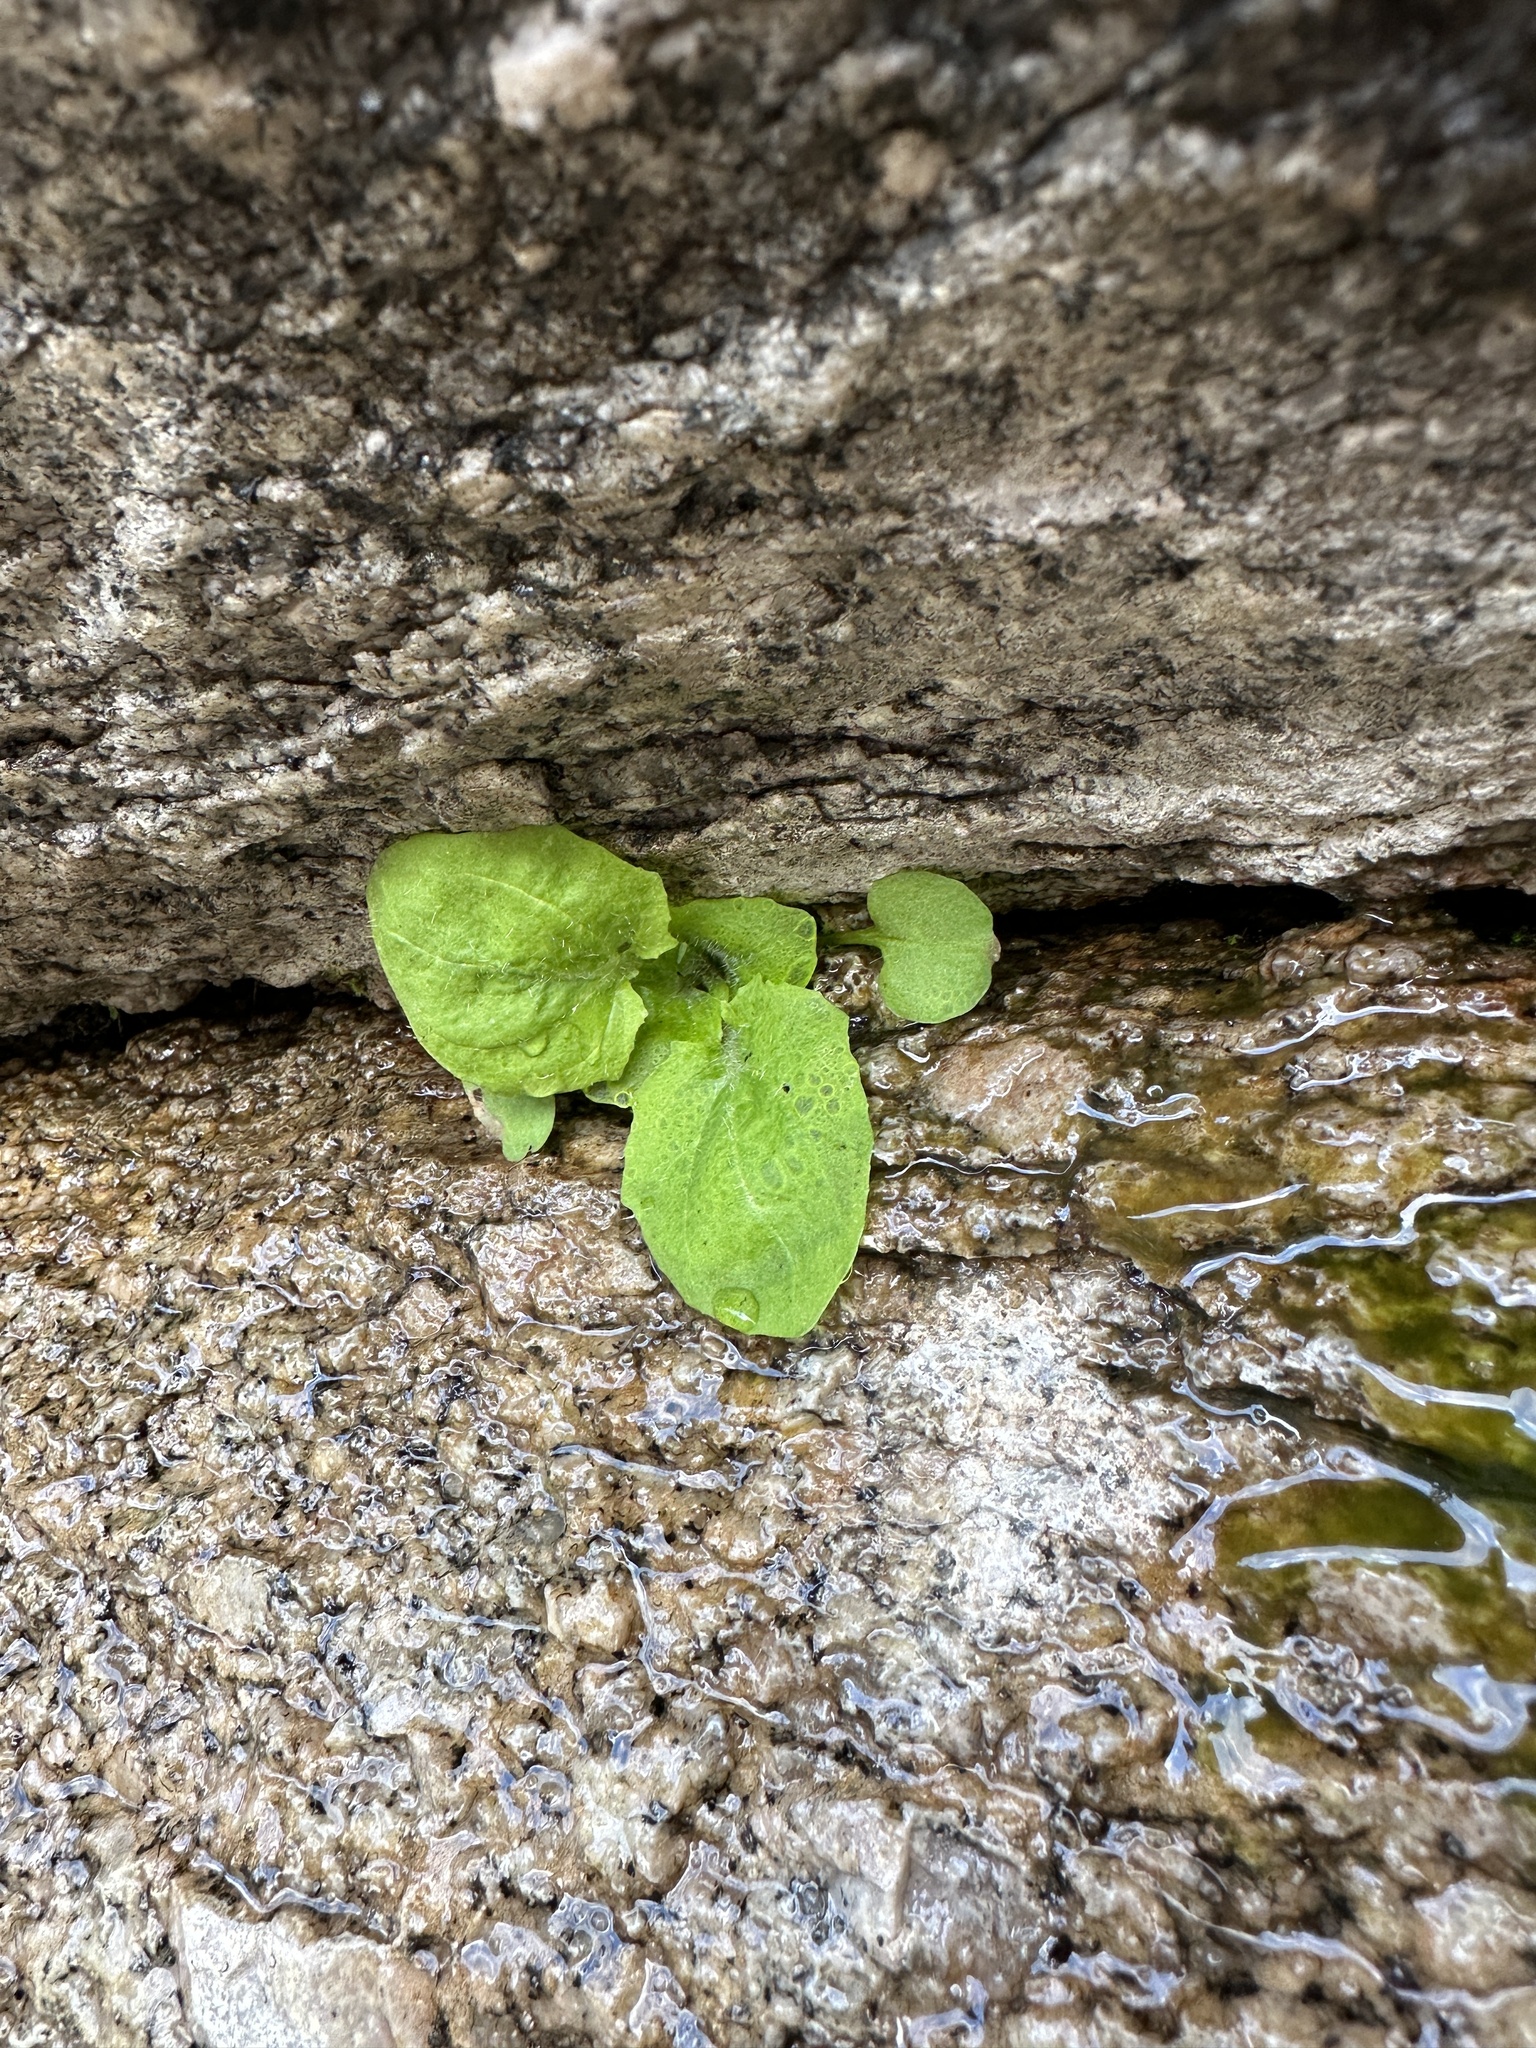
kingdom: Plantae
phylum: Tracheophyta
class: Magnoliopsida
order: Lamiales
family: Phrymaceae
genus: Erythranthe
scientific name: Erythranthe angulosa
